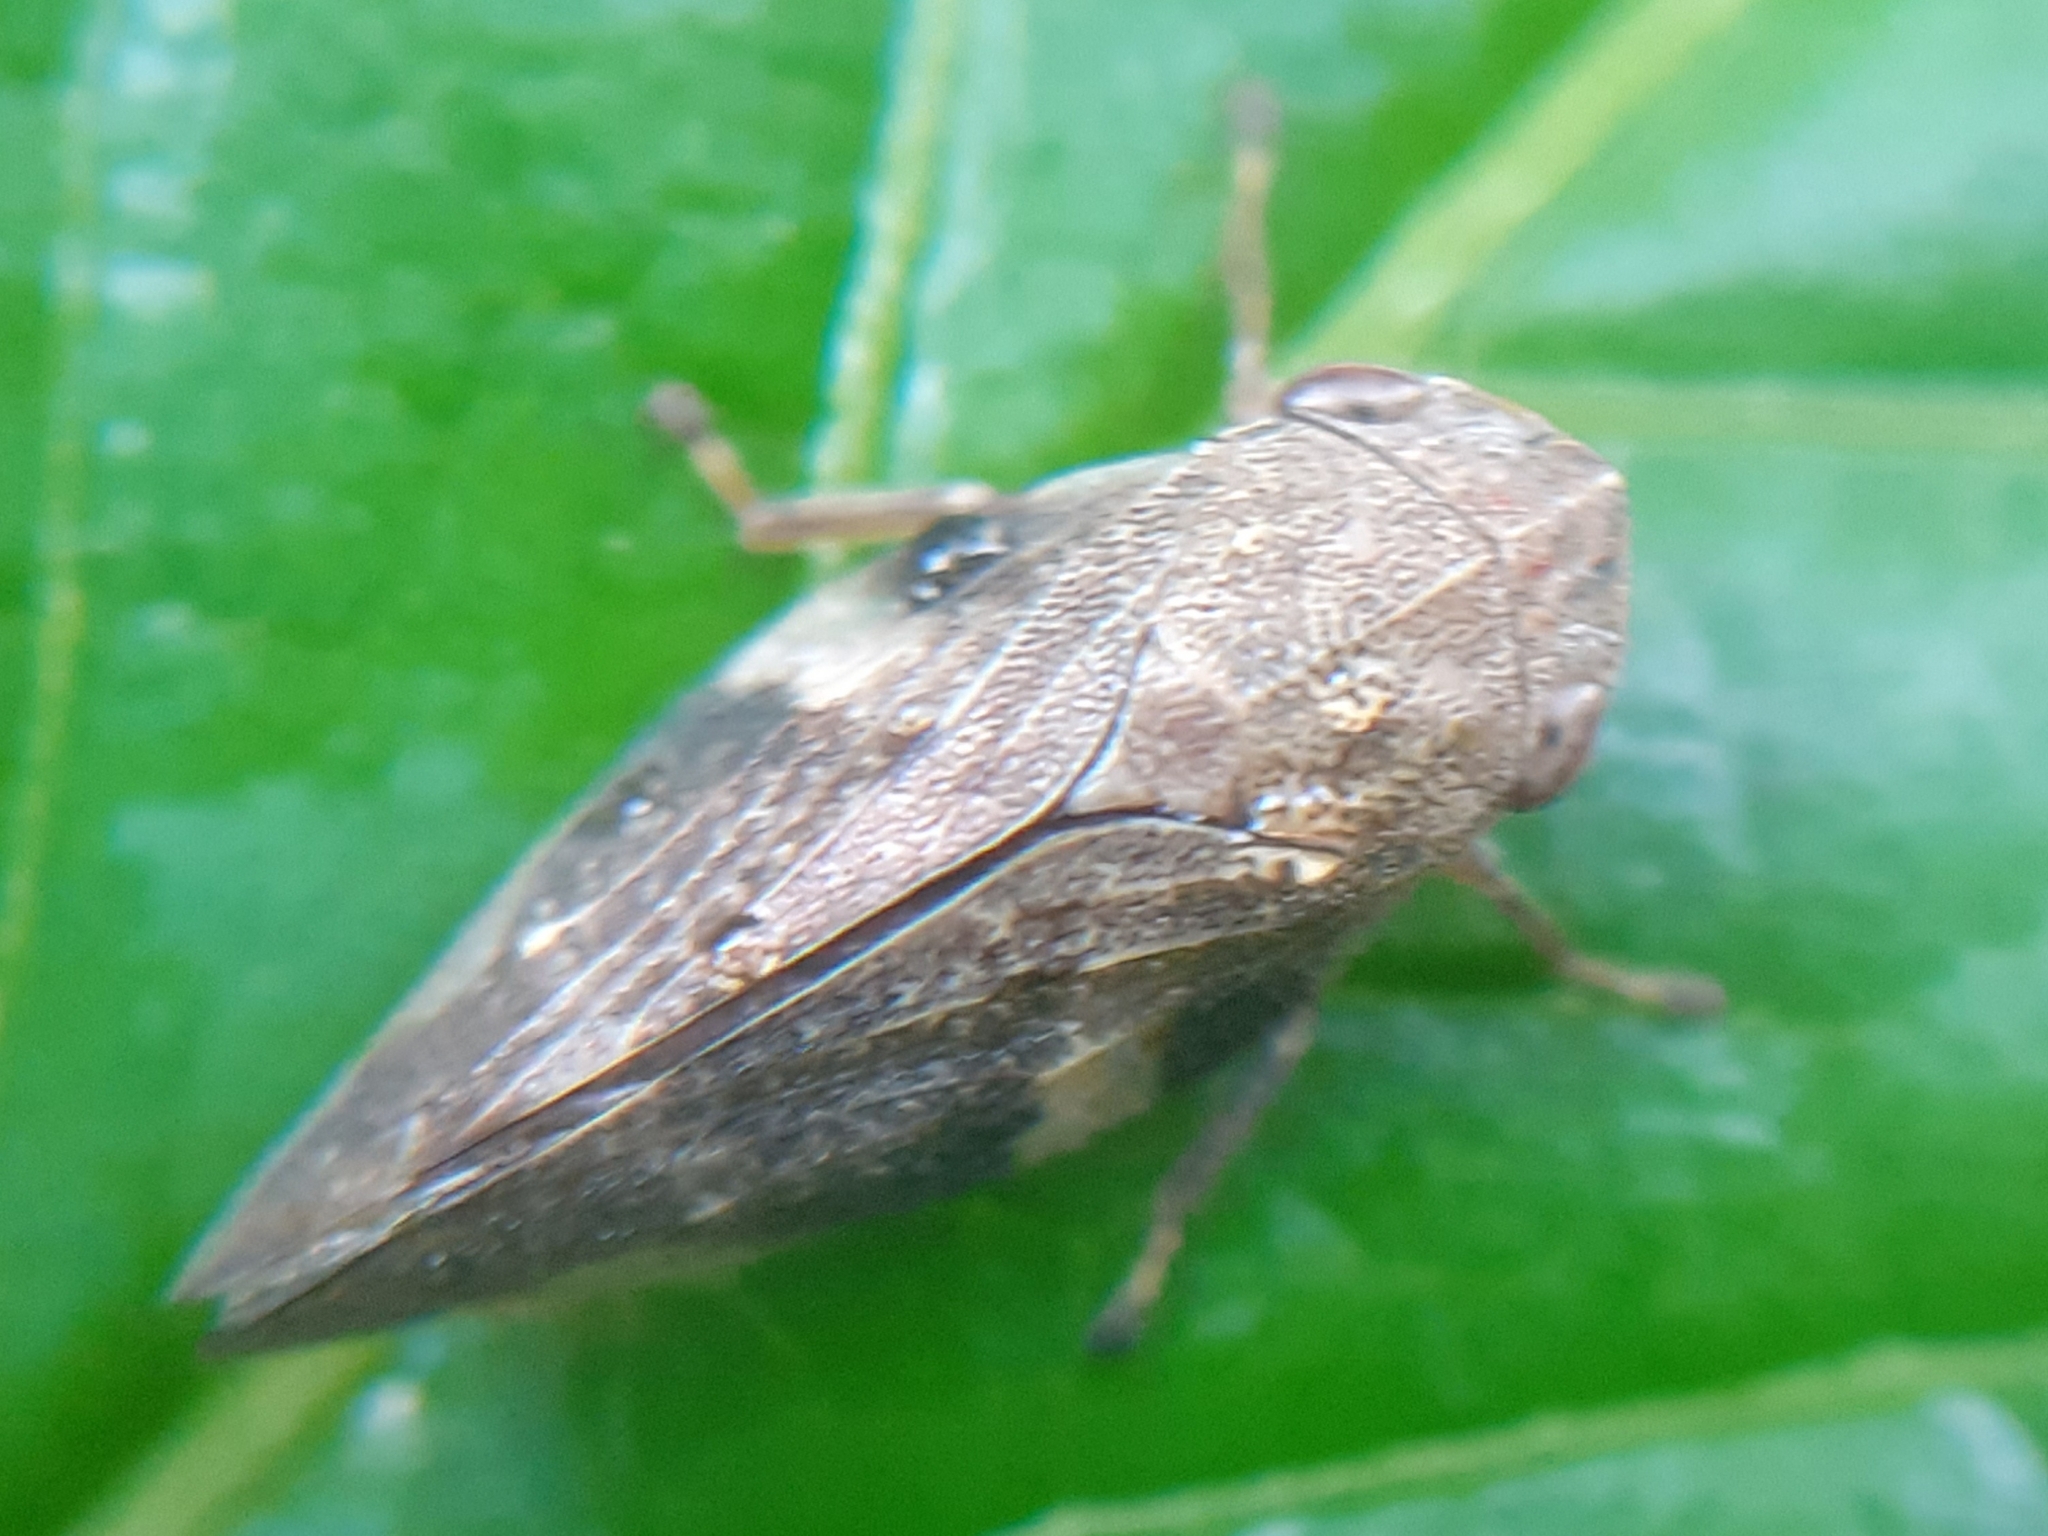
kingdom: Animalia
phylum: Arthropoda
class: Insecta
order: Hemiptera
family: Aphrophoridae
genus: Aphrophora
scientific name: Aphrophora alni
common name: European alder spittlebug
